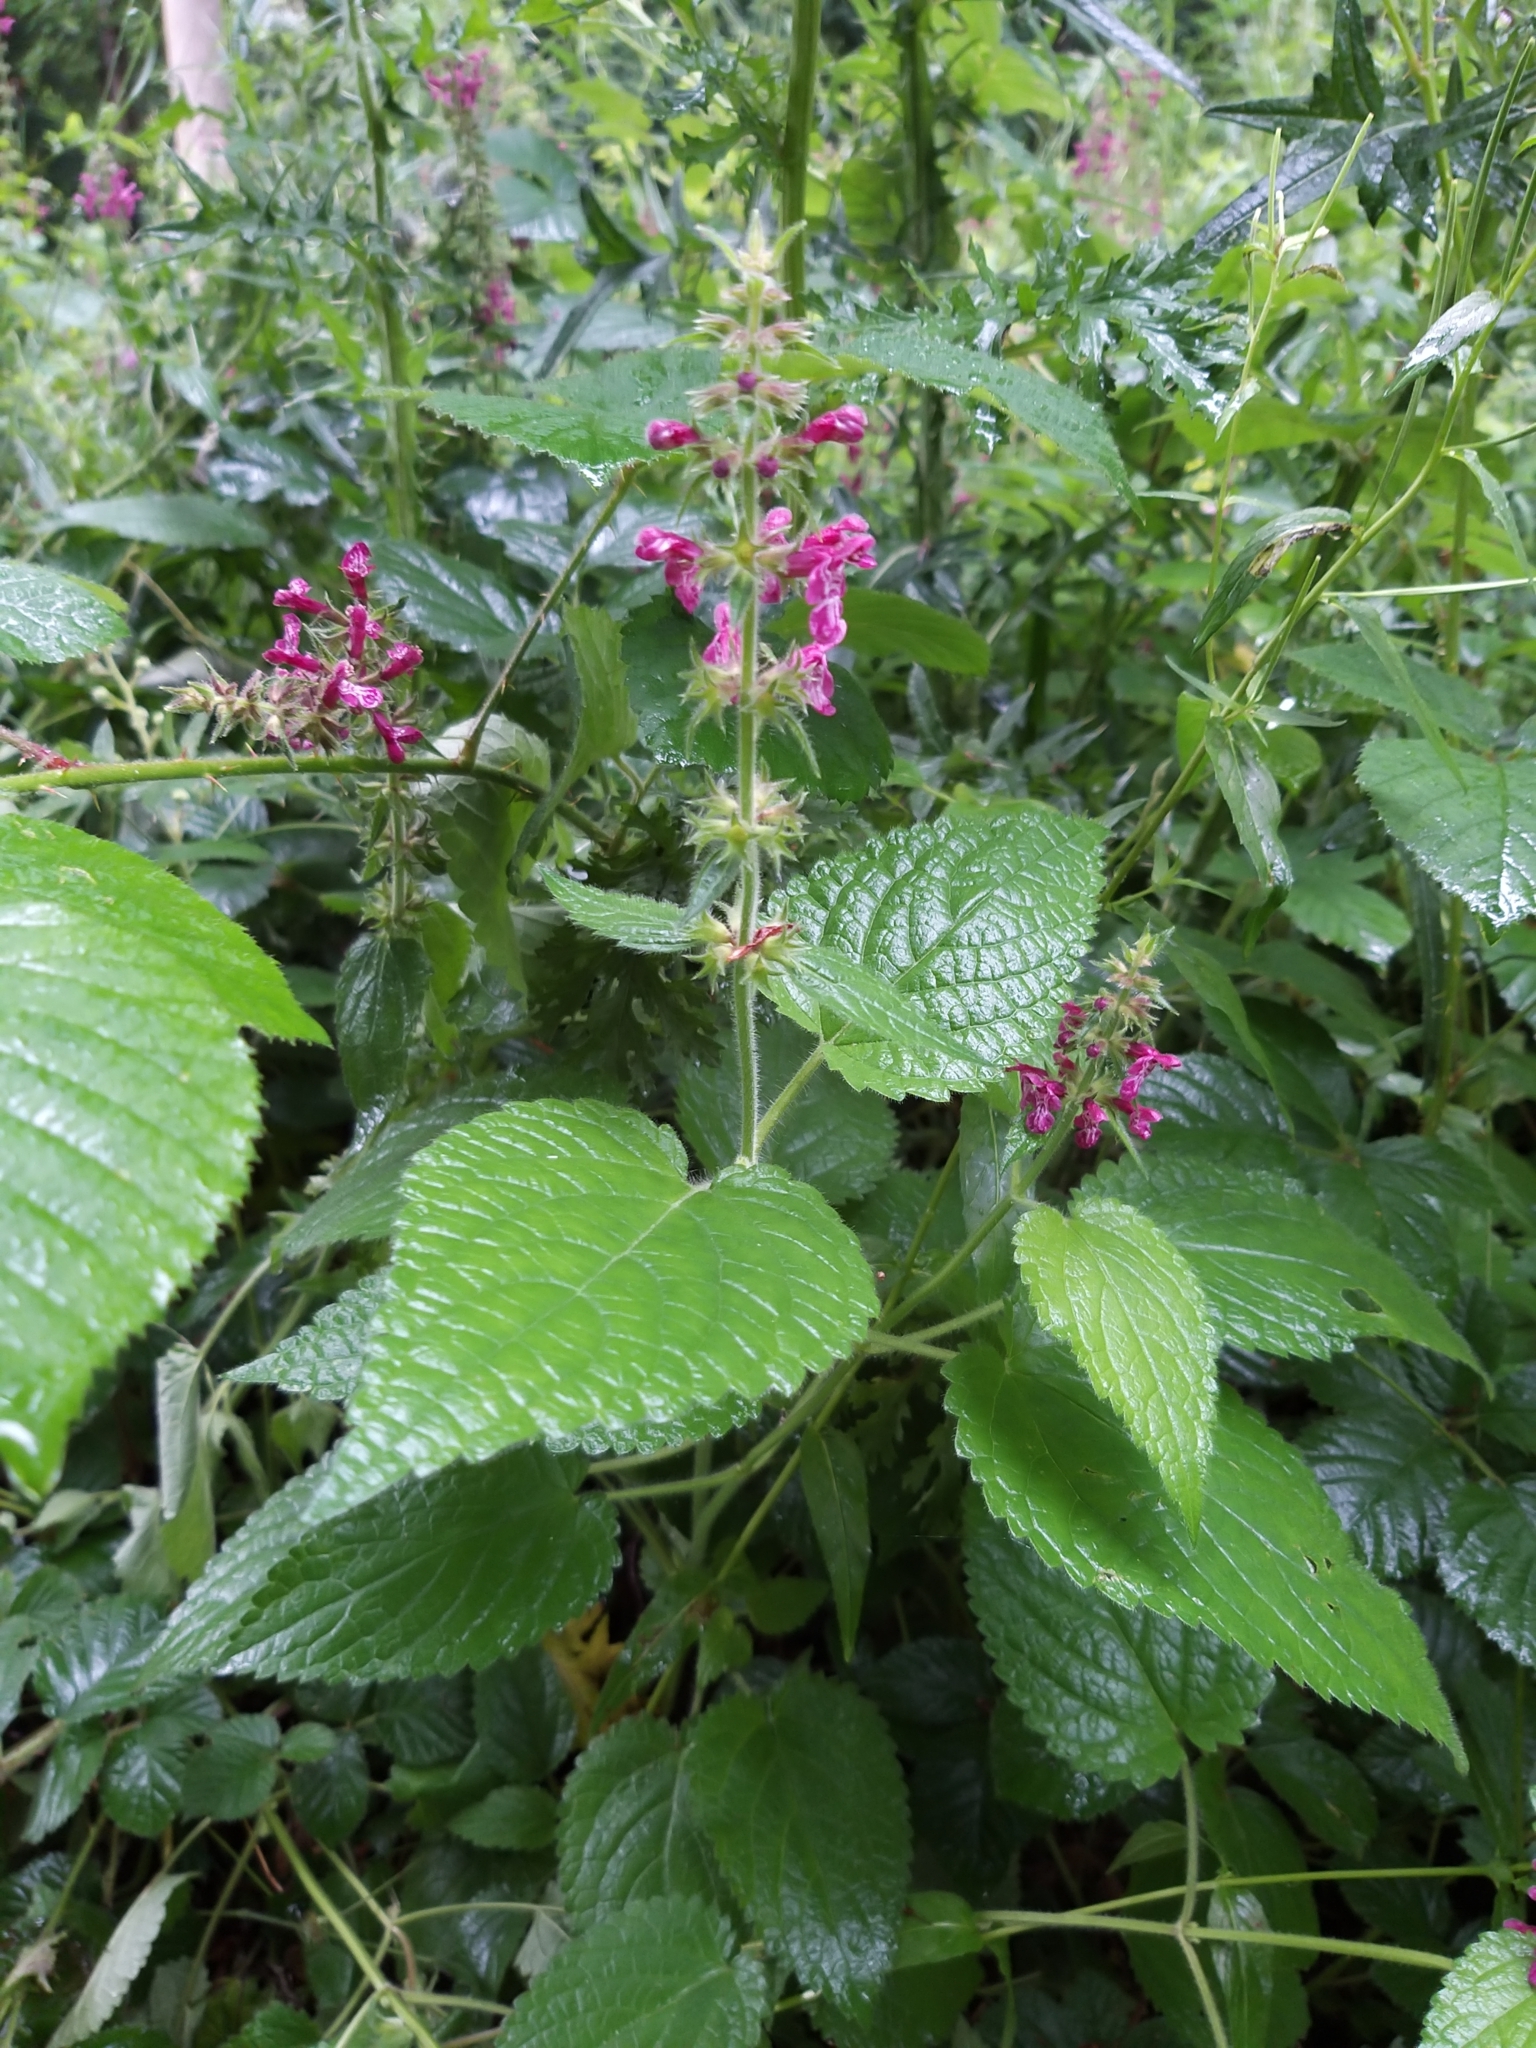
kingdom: Plantae
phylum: Tracheophyta
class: Magnoliopsida
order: Lamiales
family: Lamiaceae
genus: Stachys
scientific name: Stachys sylvatica
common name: Hedge woundwort
